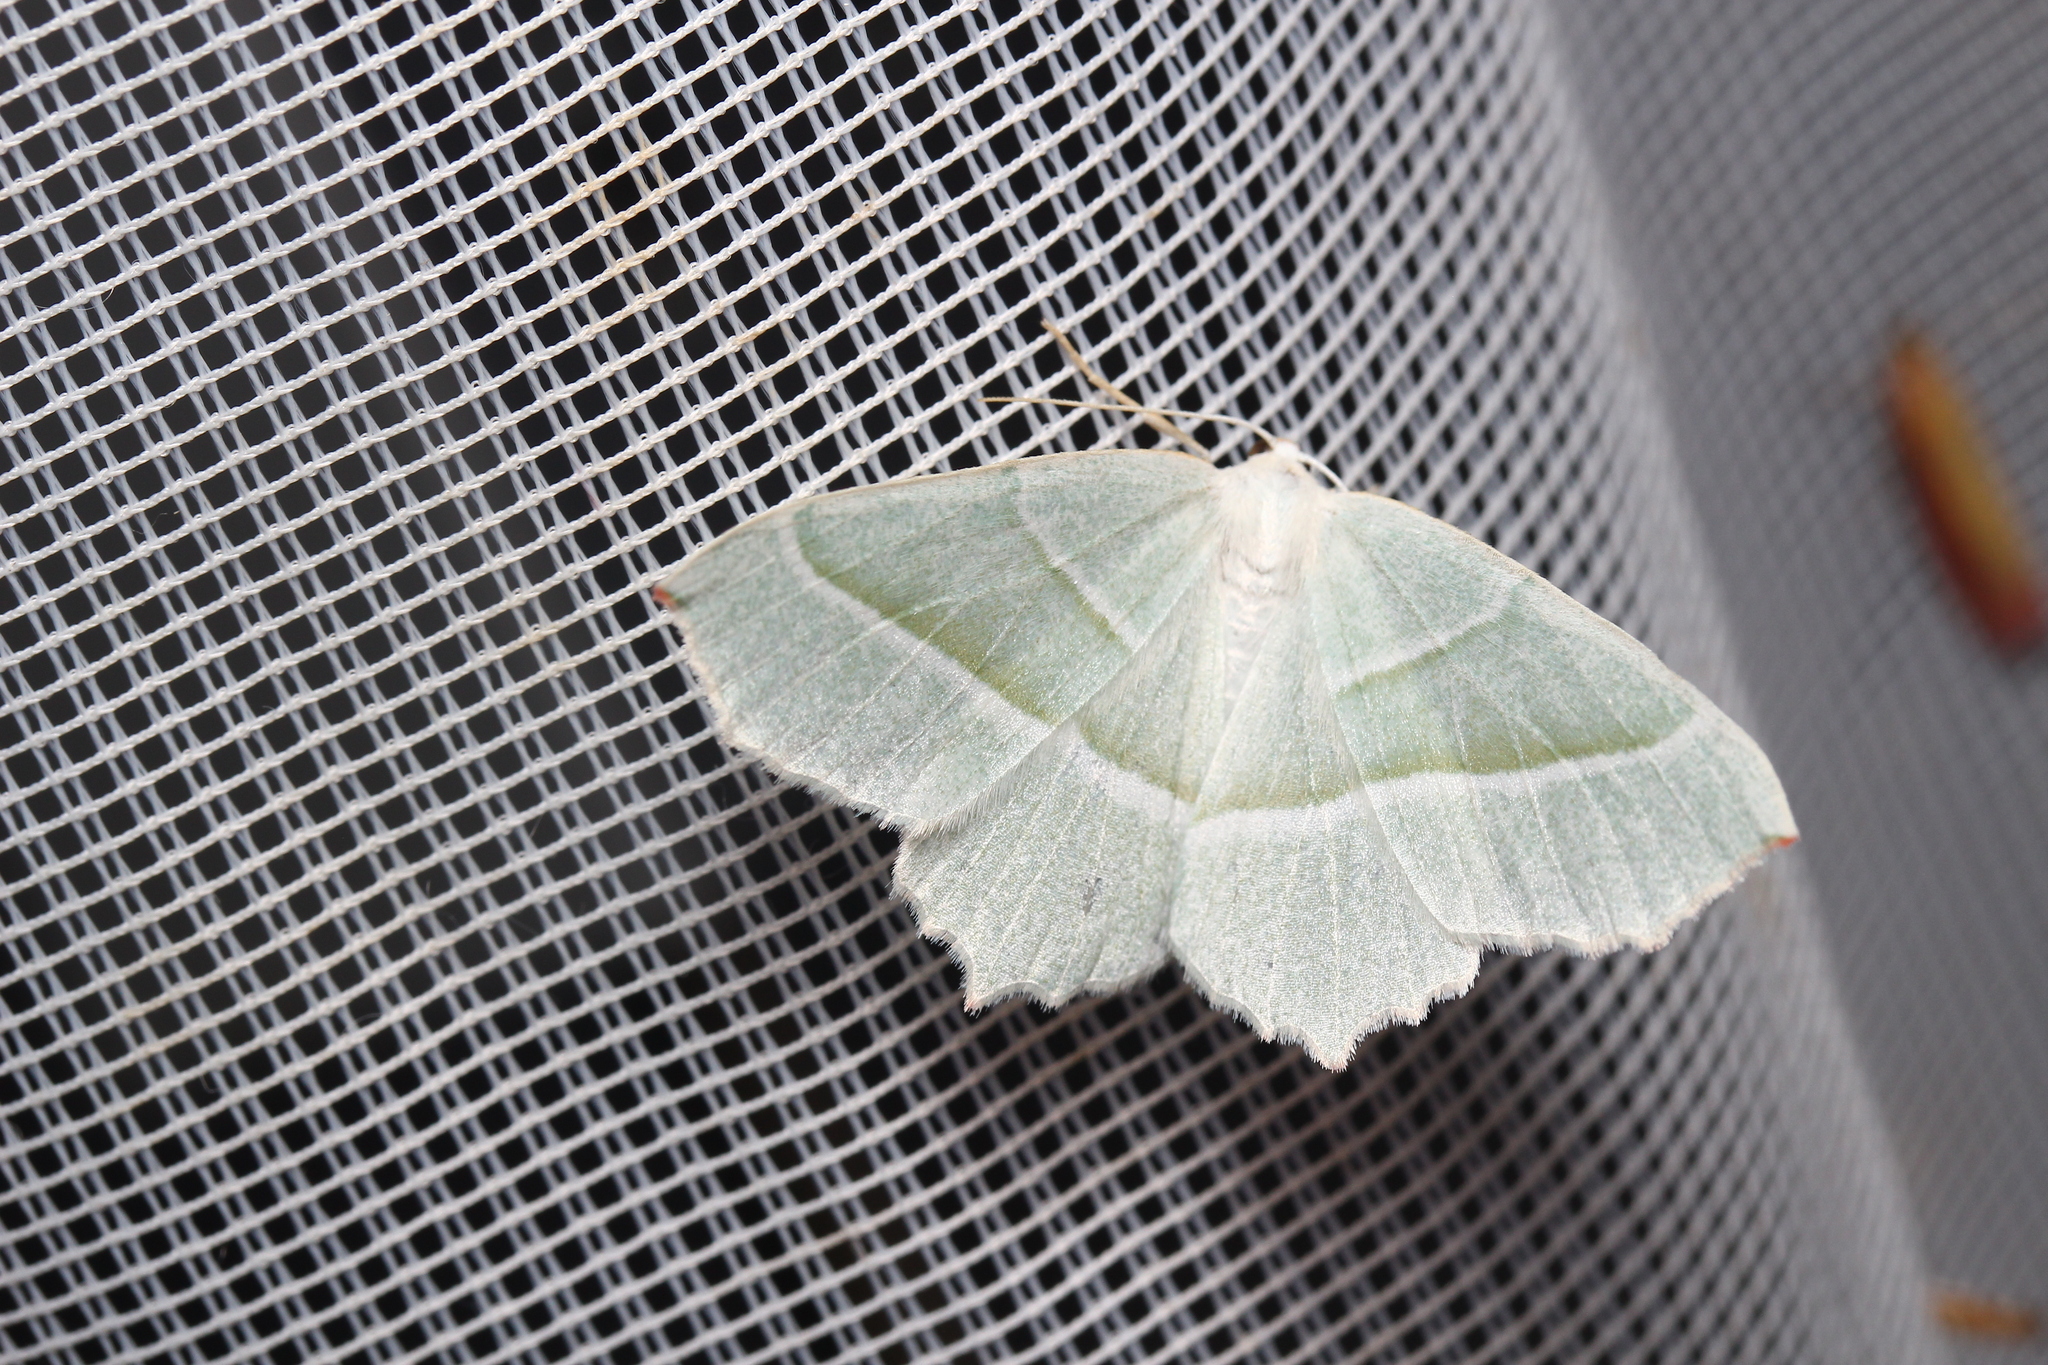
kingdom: Animalia
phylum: Arthropoda
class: Insecta
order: Lepidoptera
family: Geometridae
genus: Campaea
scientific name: Campaea margaritaria
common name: Light emerald
